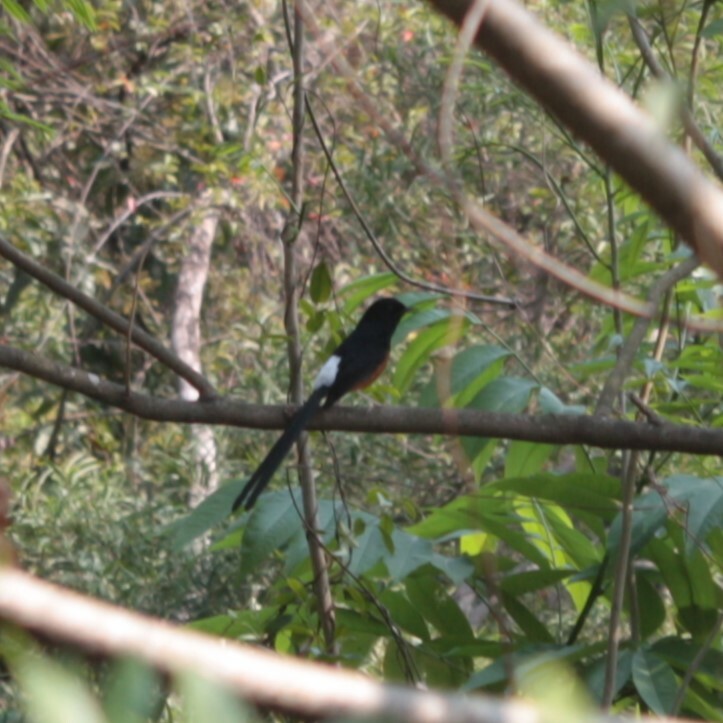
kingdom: Animalia
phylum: Chordata
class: Aves
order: Passeriformes
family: Muscicapidae
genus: Copsychus
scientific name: Copsychus malabaricus
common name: White-rumped shama
